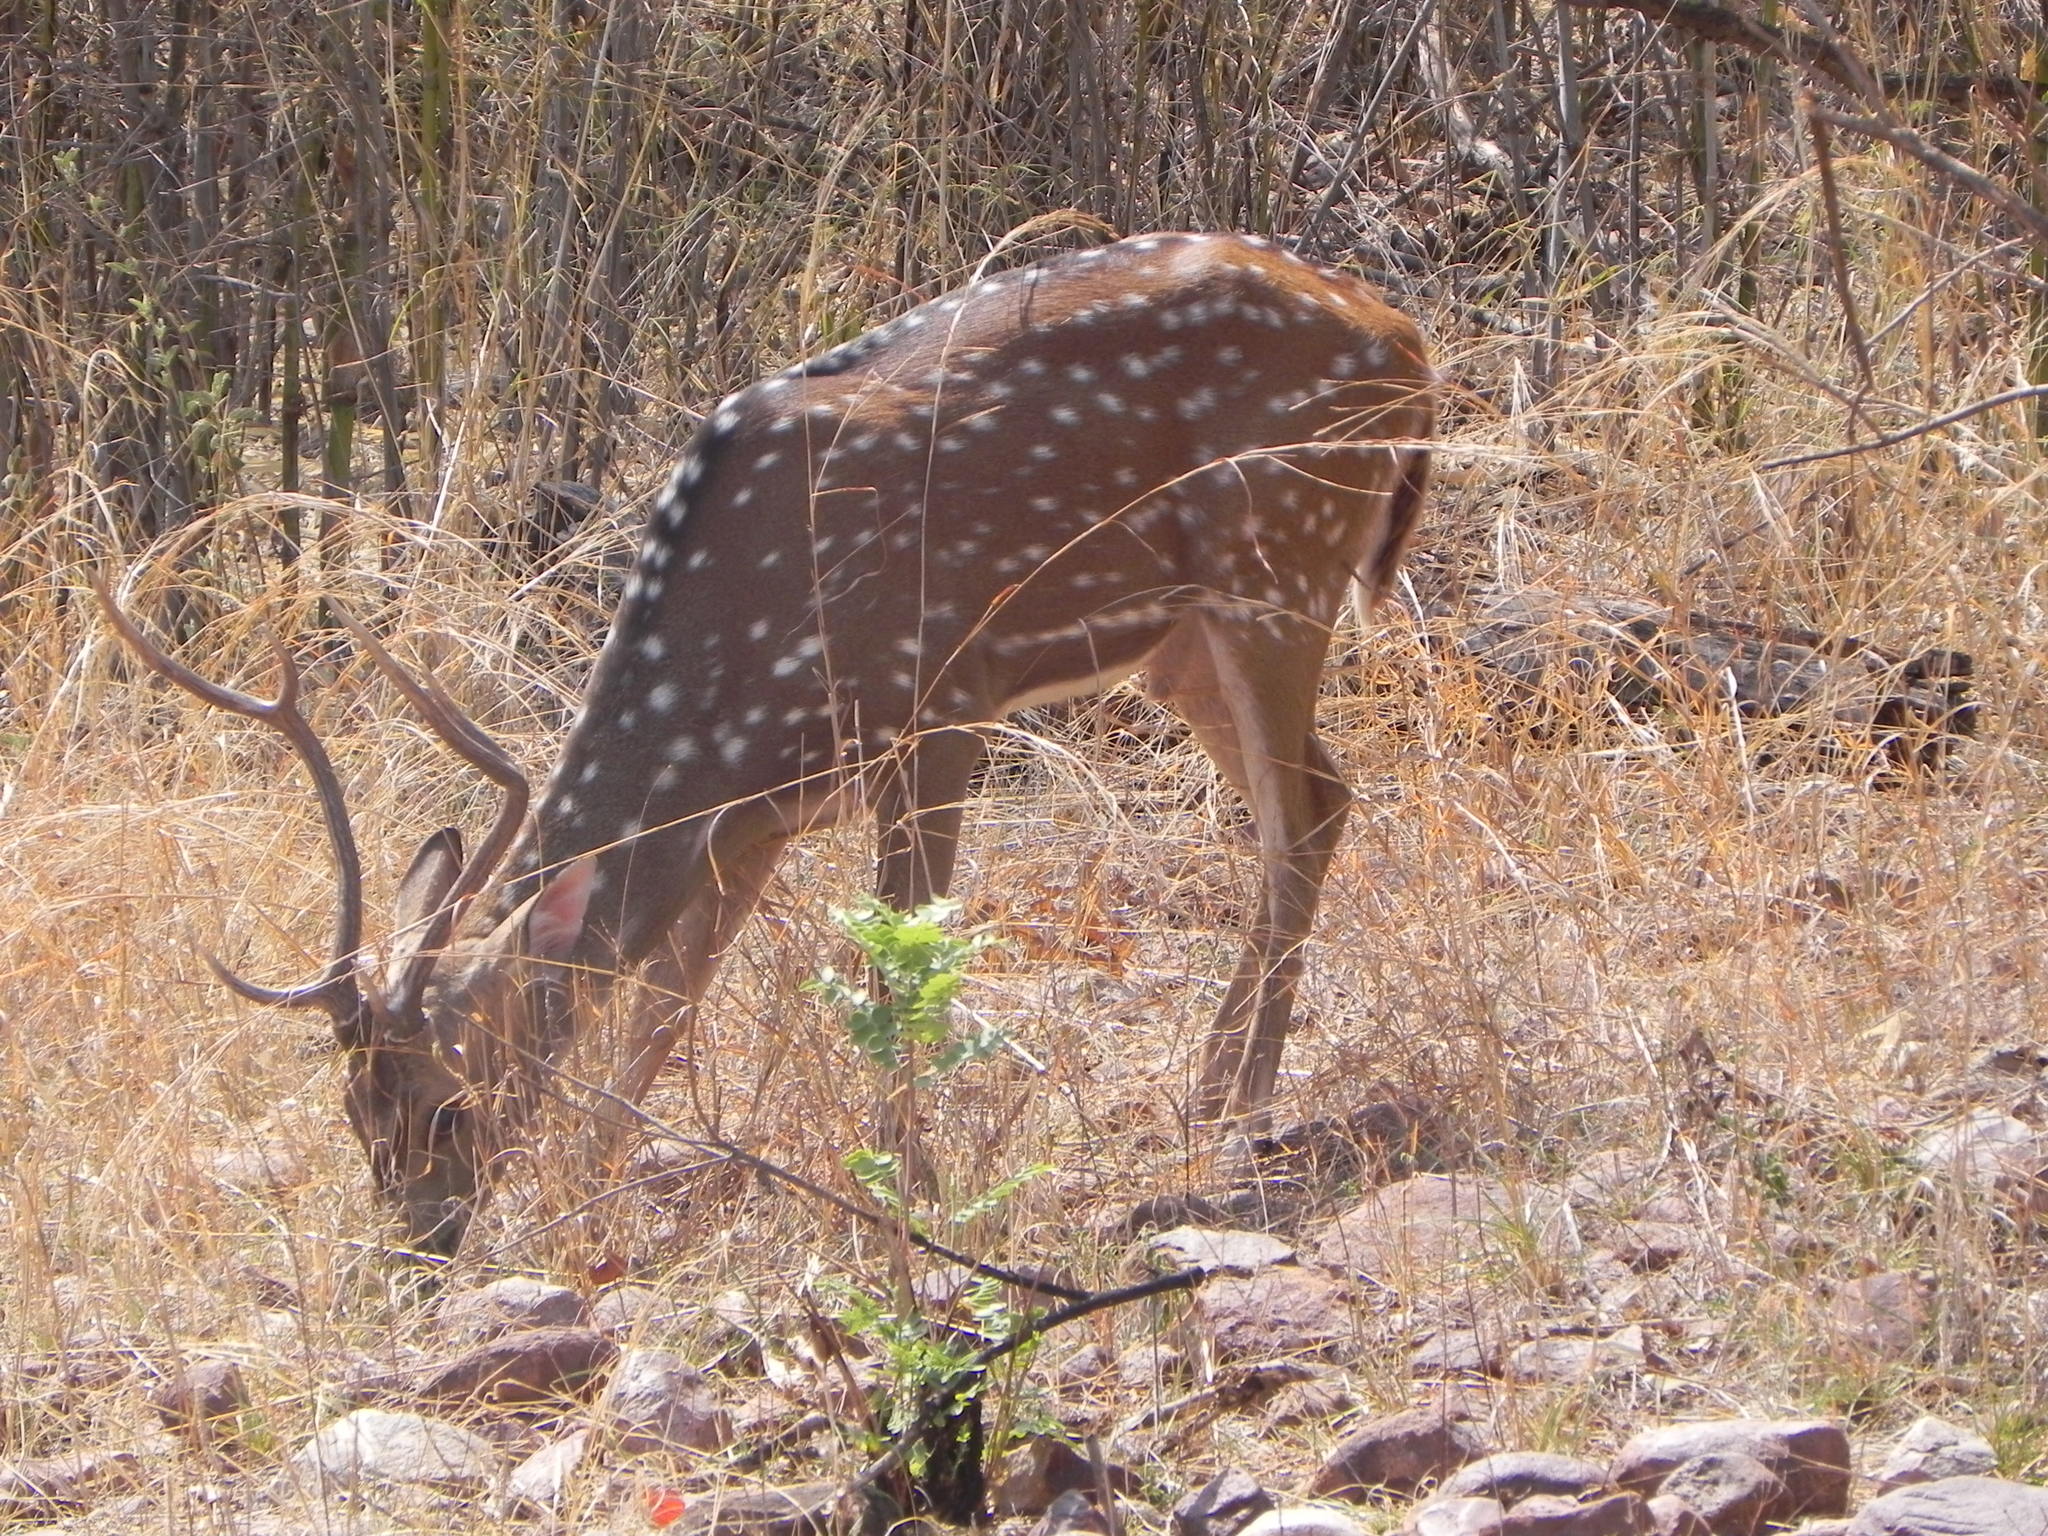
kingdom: Animalia
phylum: Chordata
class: Mammalia
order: Artiodactyla
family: Cervidae
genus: Axis
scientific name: Axis axis
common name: Chital
